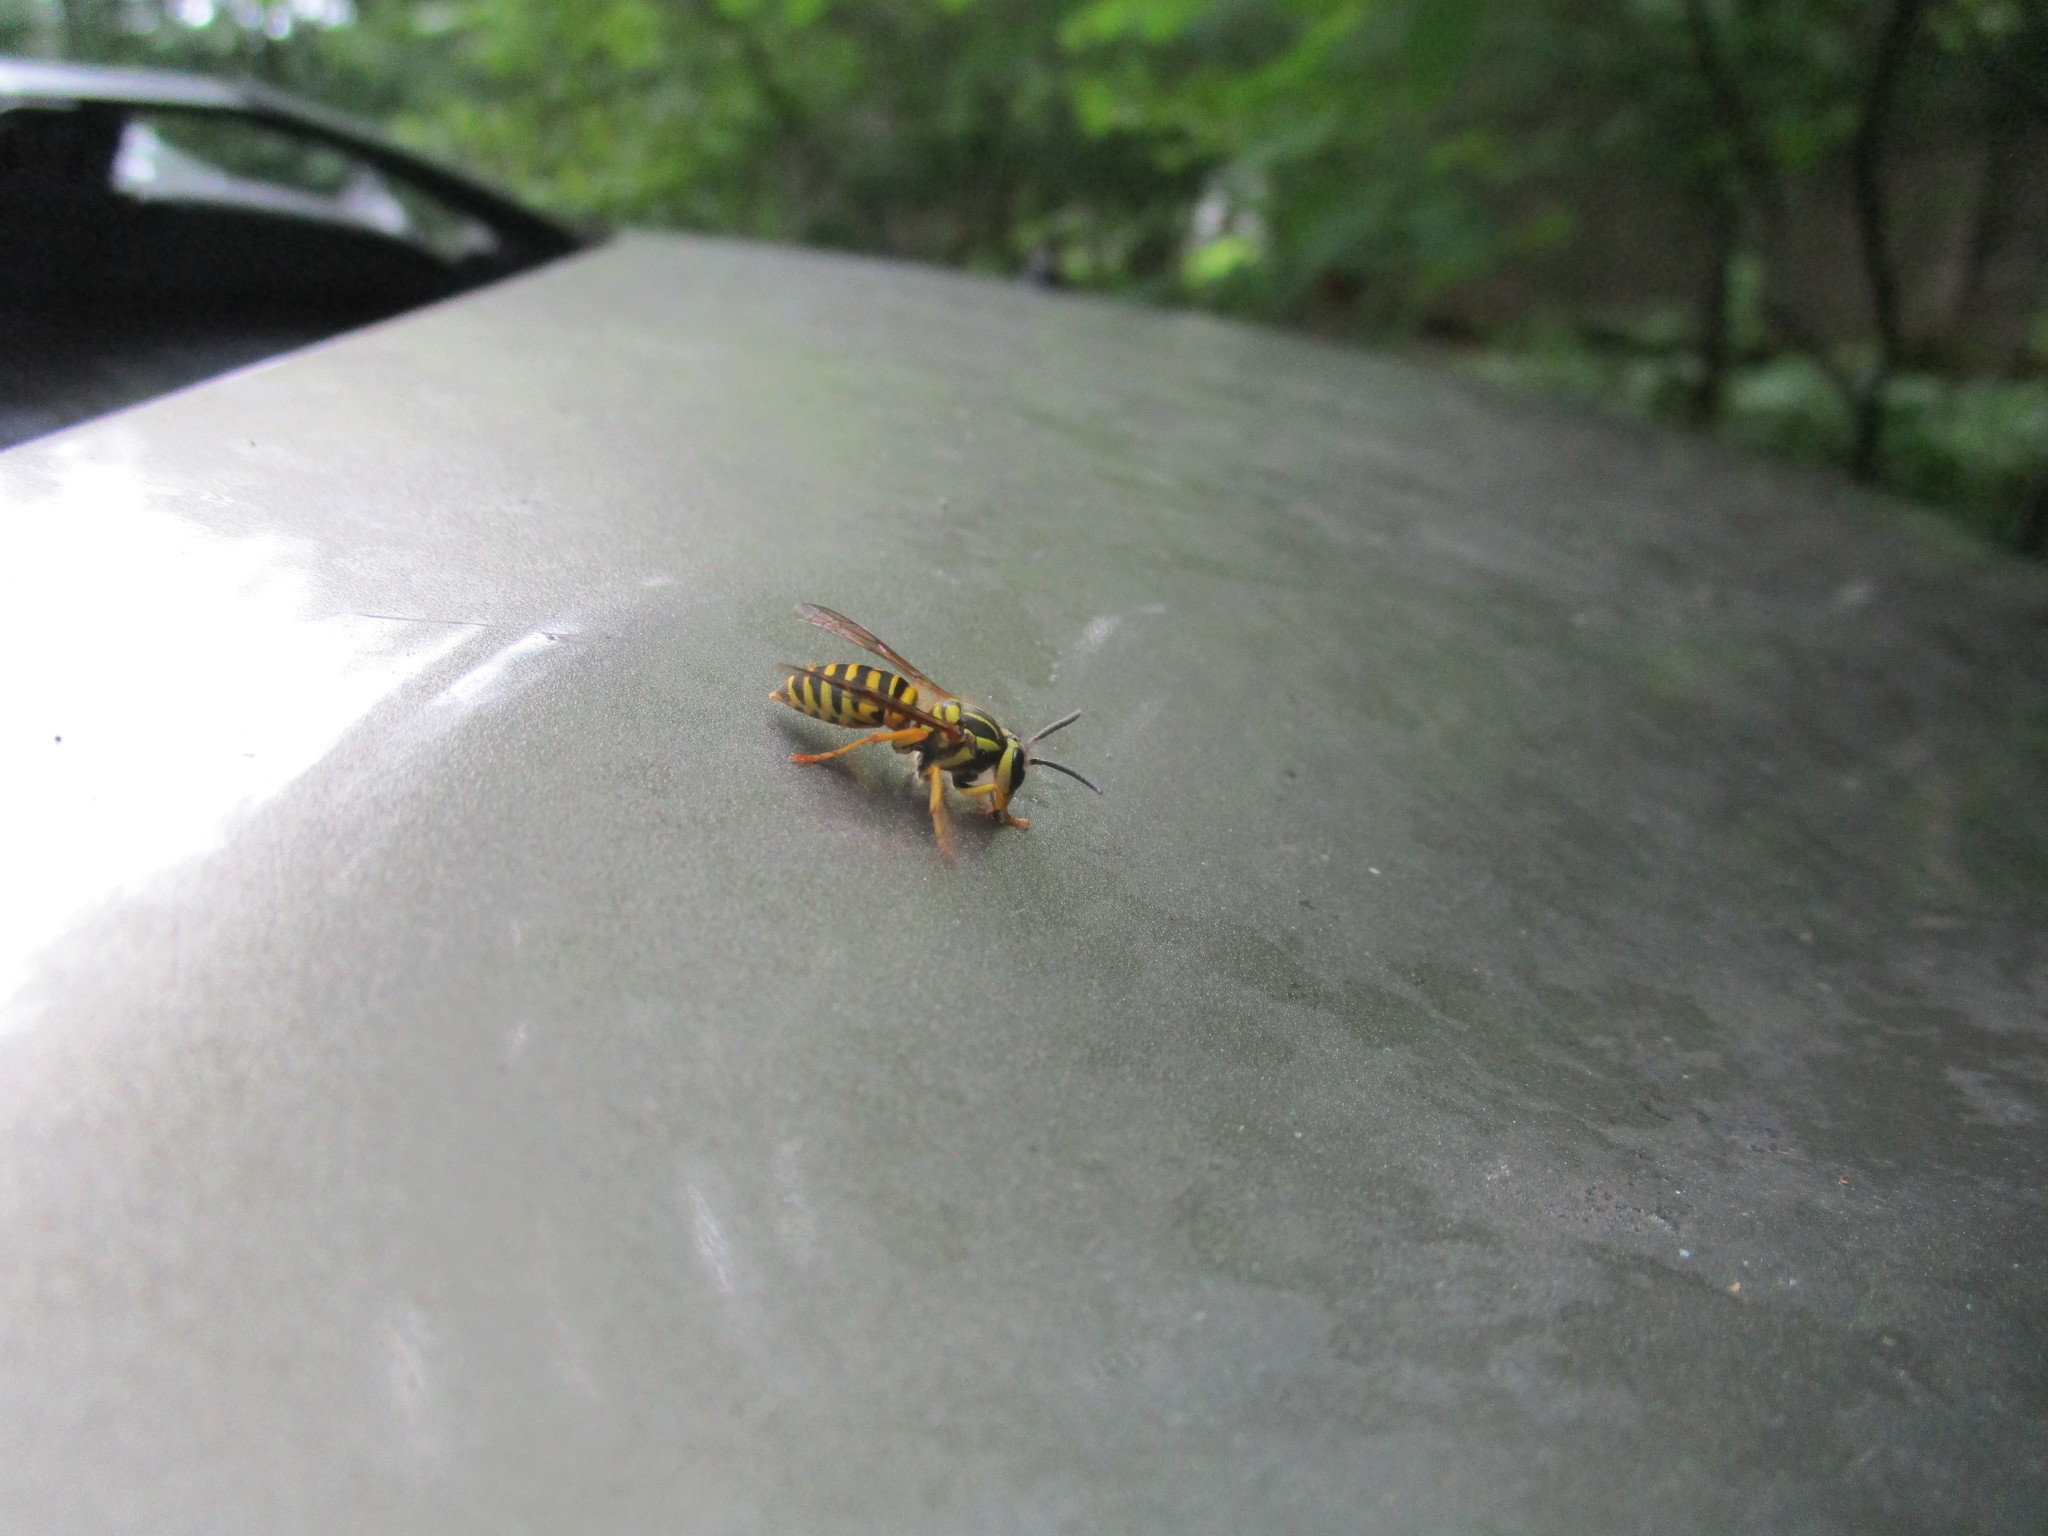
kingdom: Animalia
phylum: Arthropoda
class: Insecta
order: Hymenoptera
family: Vespidae
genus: Vespula
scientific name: Vespula squamosa
